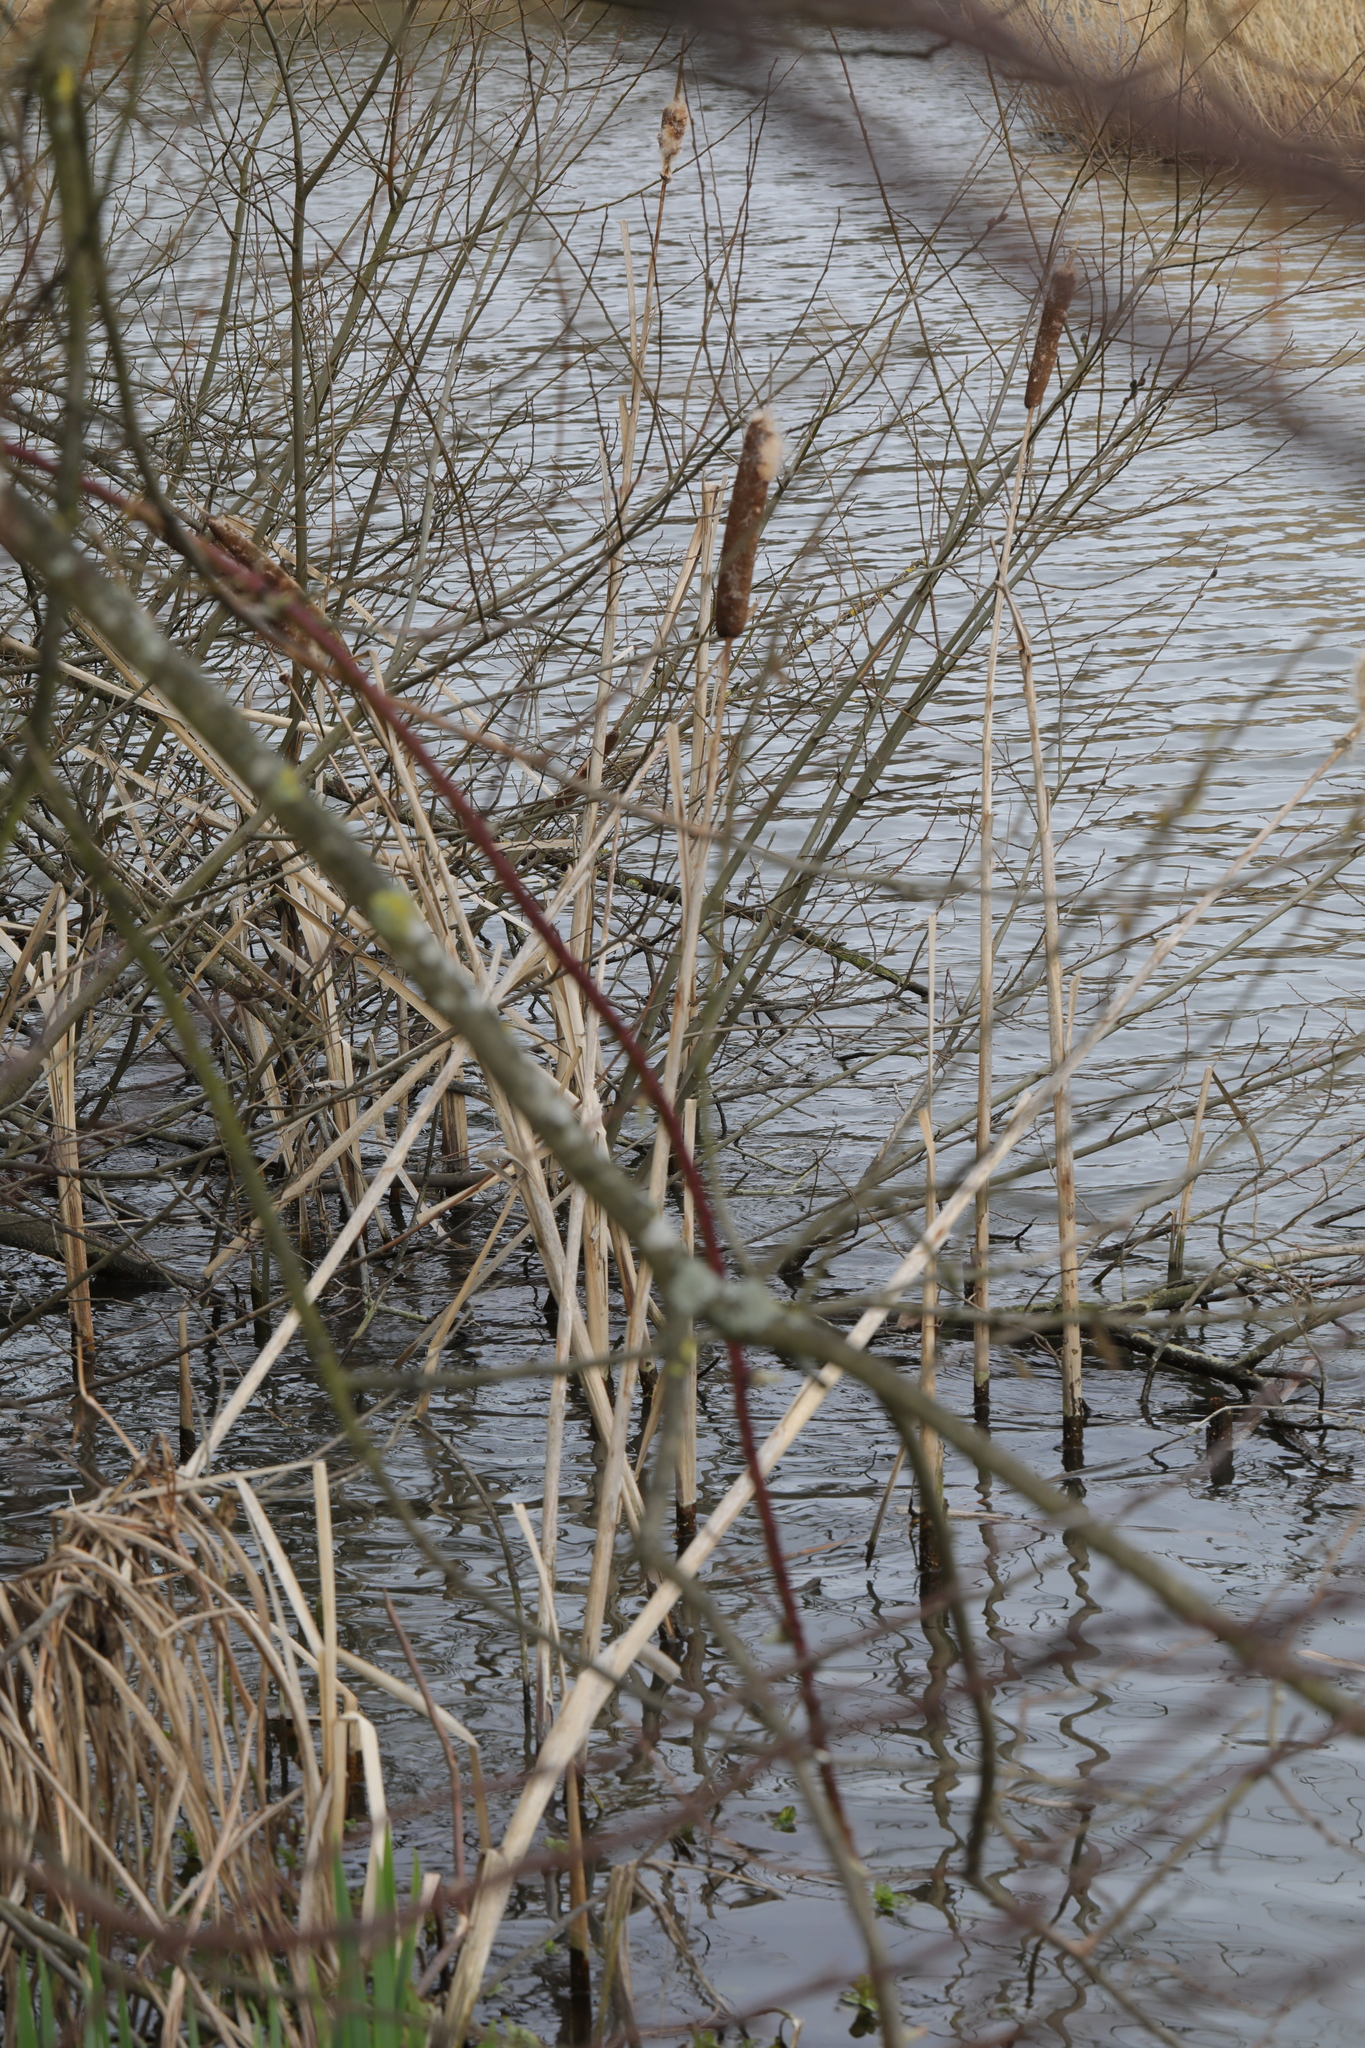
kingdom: Plantae
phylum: Tracheophyta
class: Liliopsida
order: Poales
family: Typhaceae
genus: Typha
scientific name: Typha latifolia
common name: Broadleaf cattail
